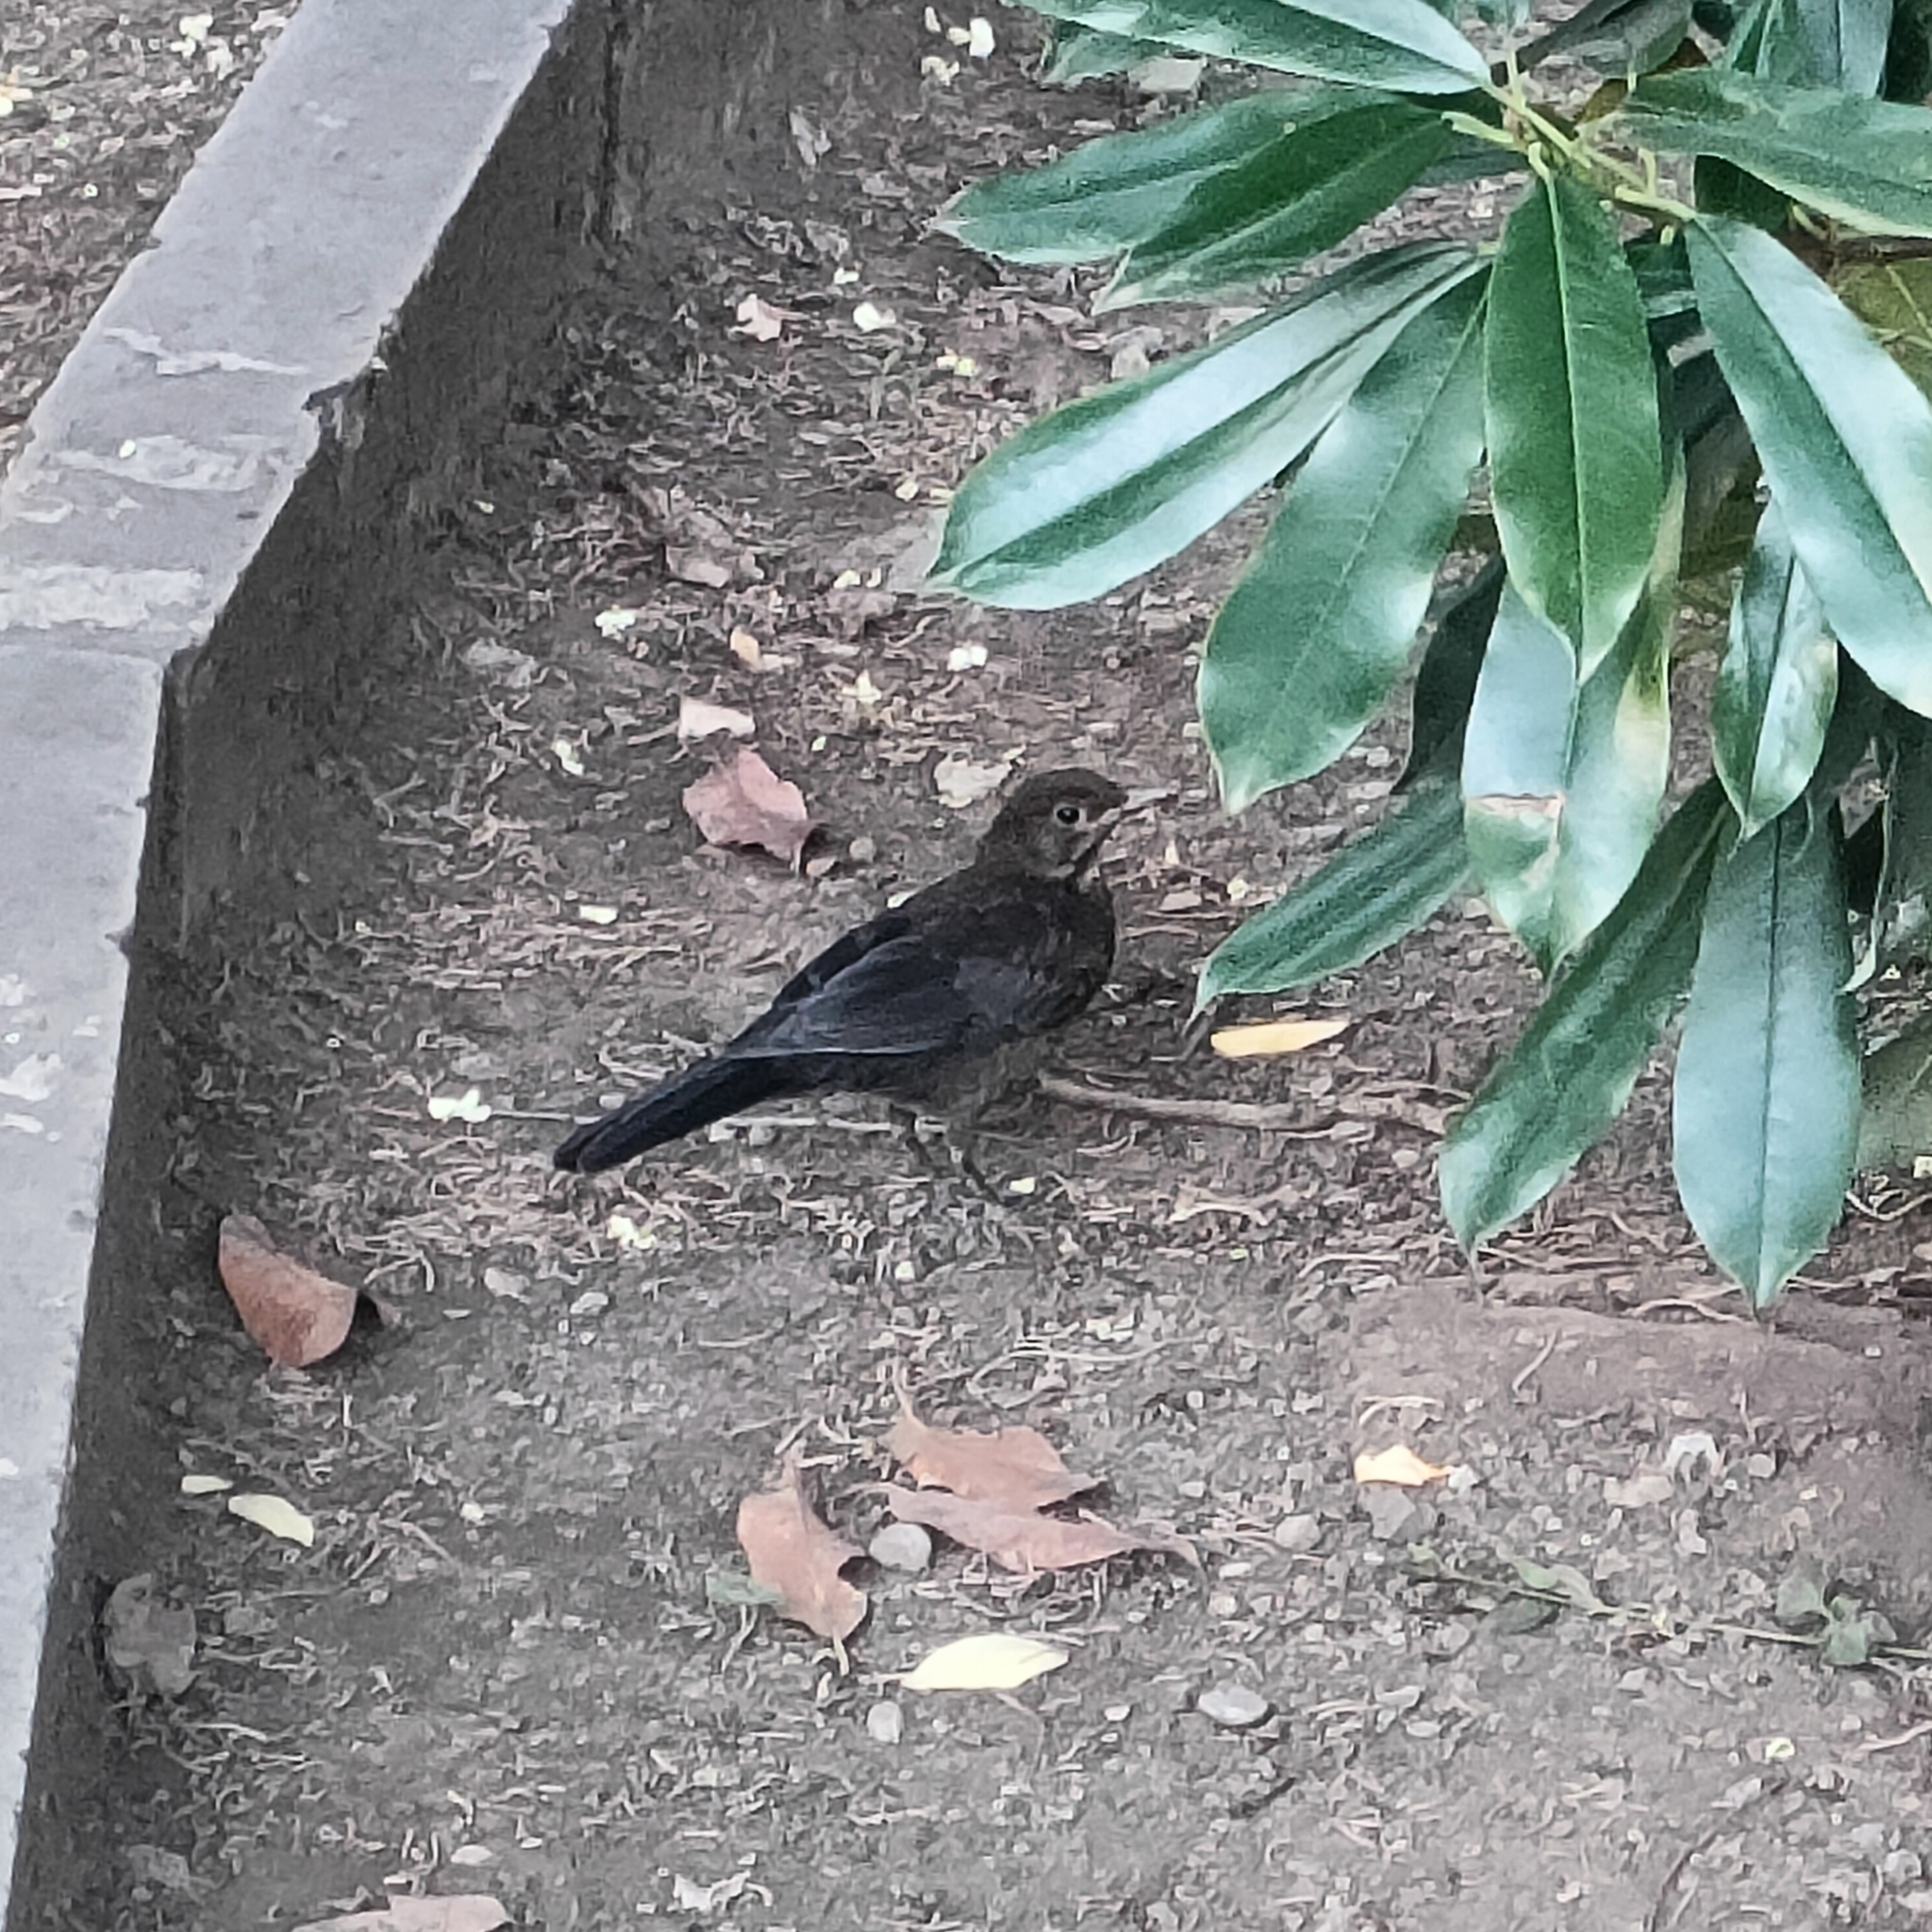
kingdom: Animalia
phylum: Chordata
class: Aves
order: Passeriformes
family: Turdidae
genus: Turdus
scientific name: Turdus merula
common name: Common blackbird
